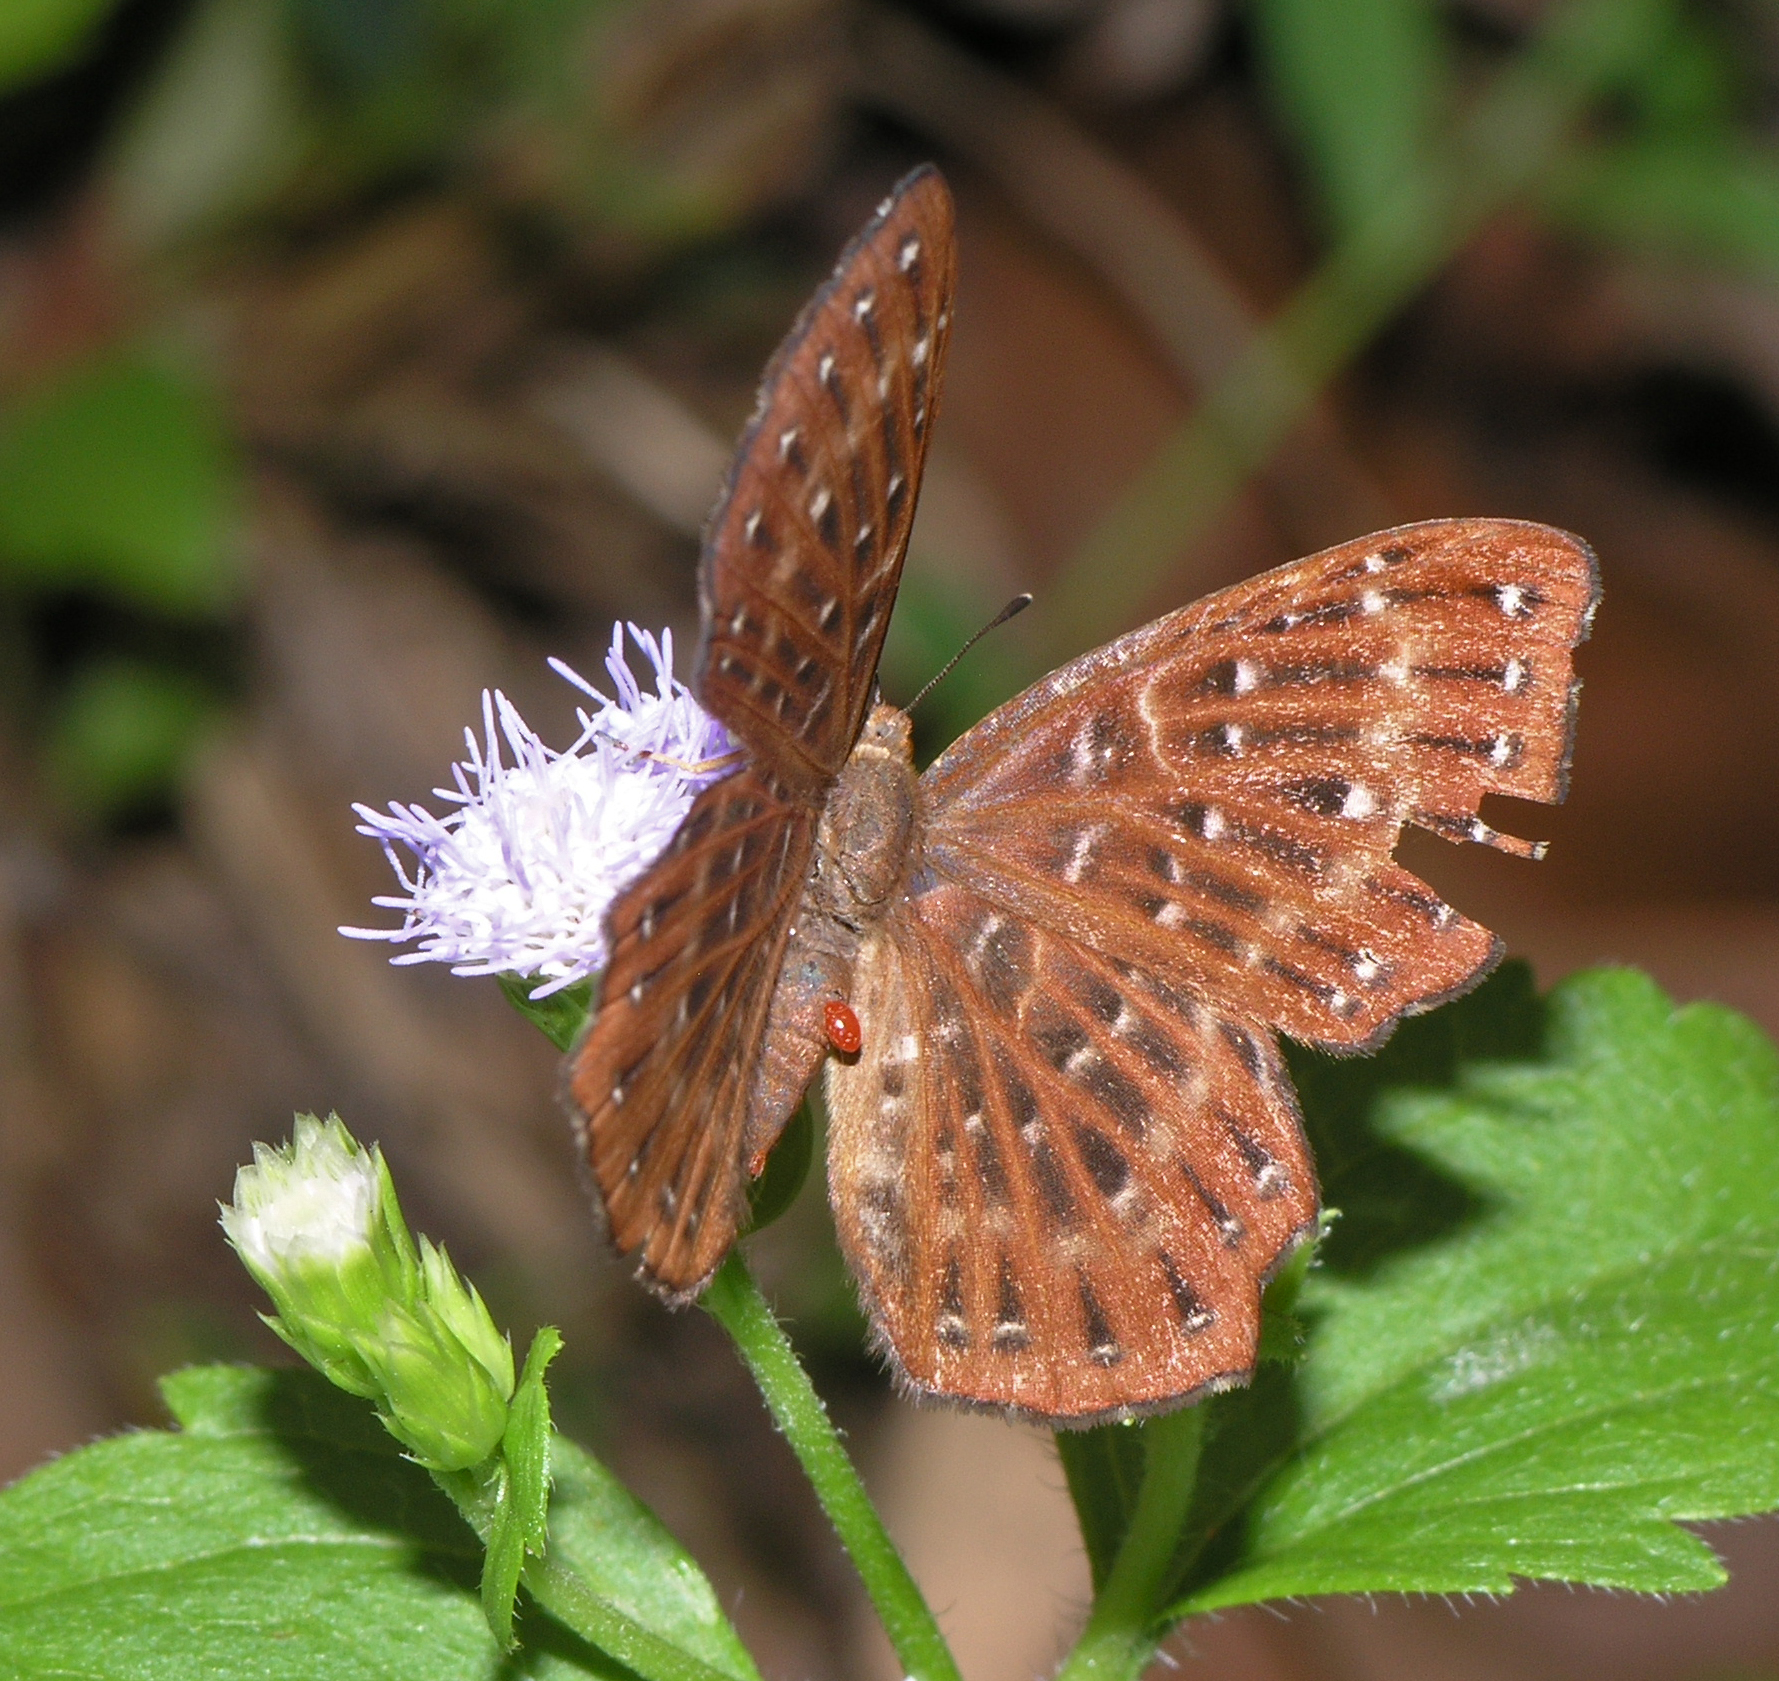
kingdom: Animalia
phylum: Arthropoda
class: Insecta
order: Lepidoptera
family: Riodinidae
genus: Zemeros
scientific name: Zemeros flegyas
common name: Punchinello
